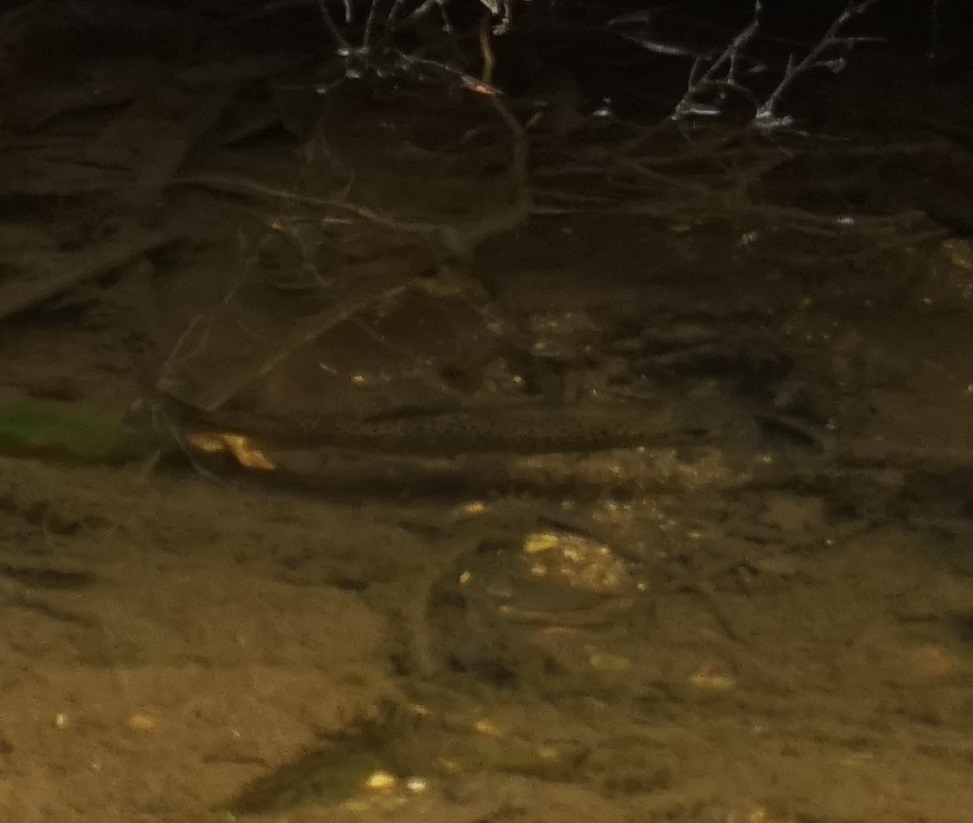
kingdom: Animalia
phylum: Chordata
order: Salmoniformes
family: Salmonidae
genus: Salmo
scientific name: Salmo trutta
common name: Brown trout
